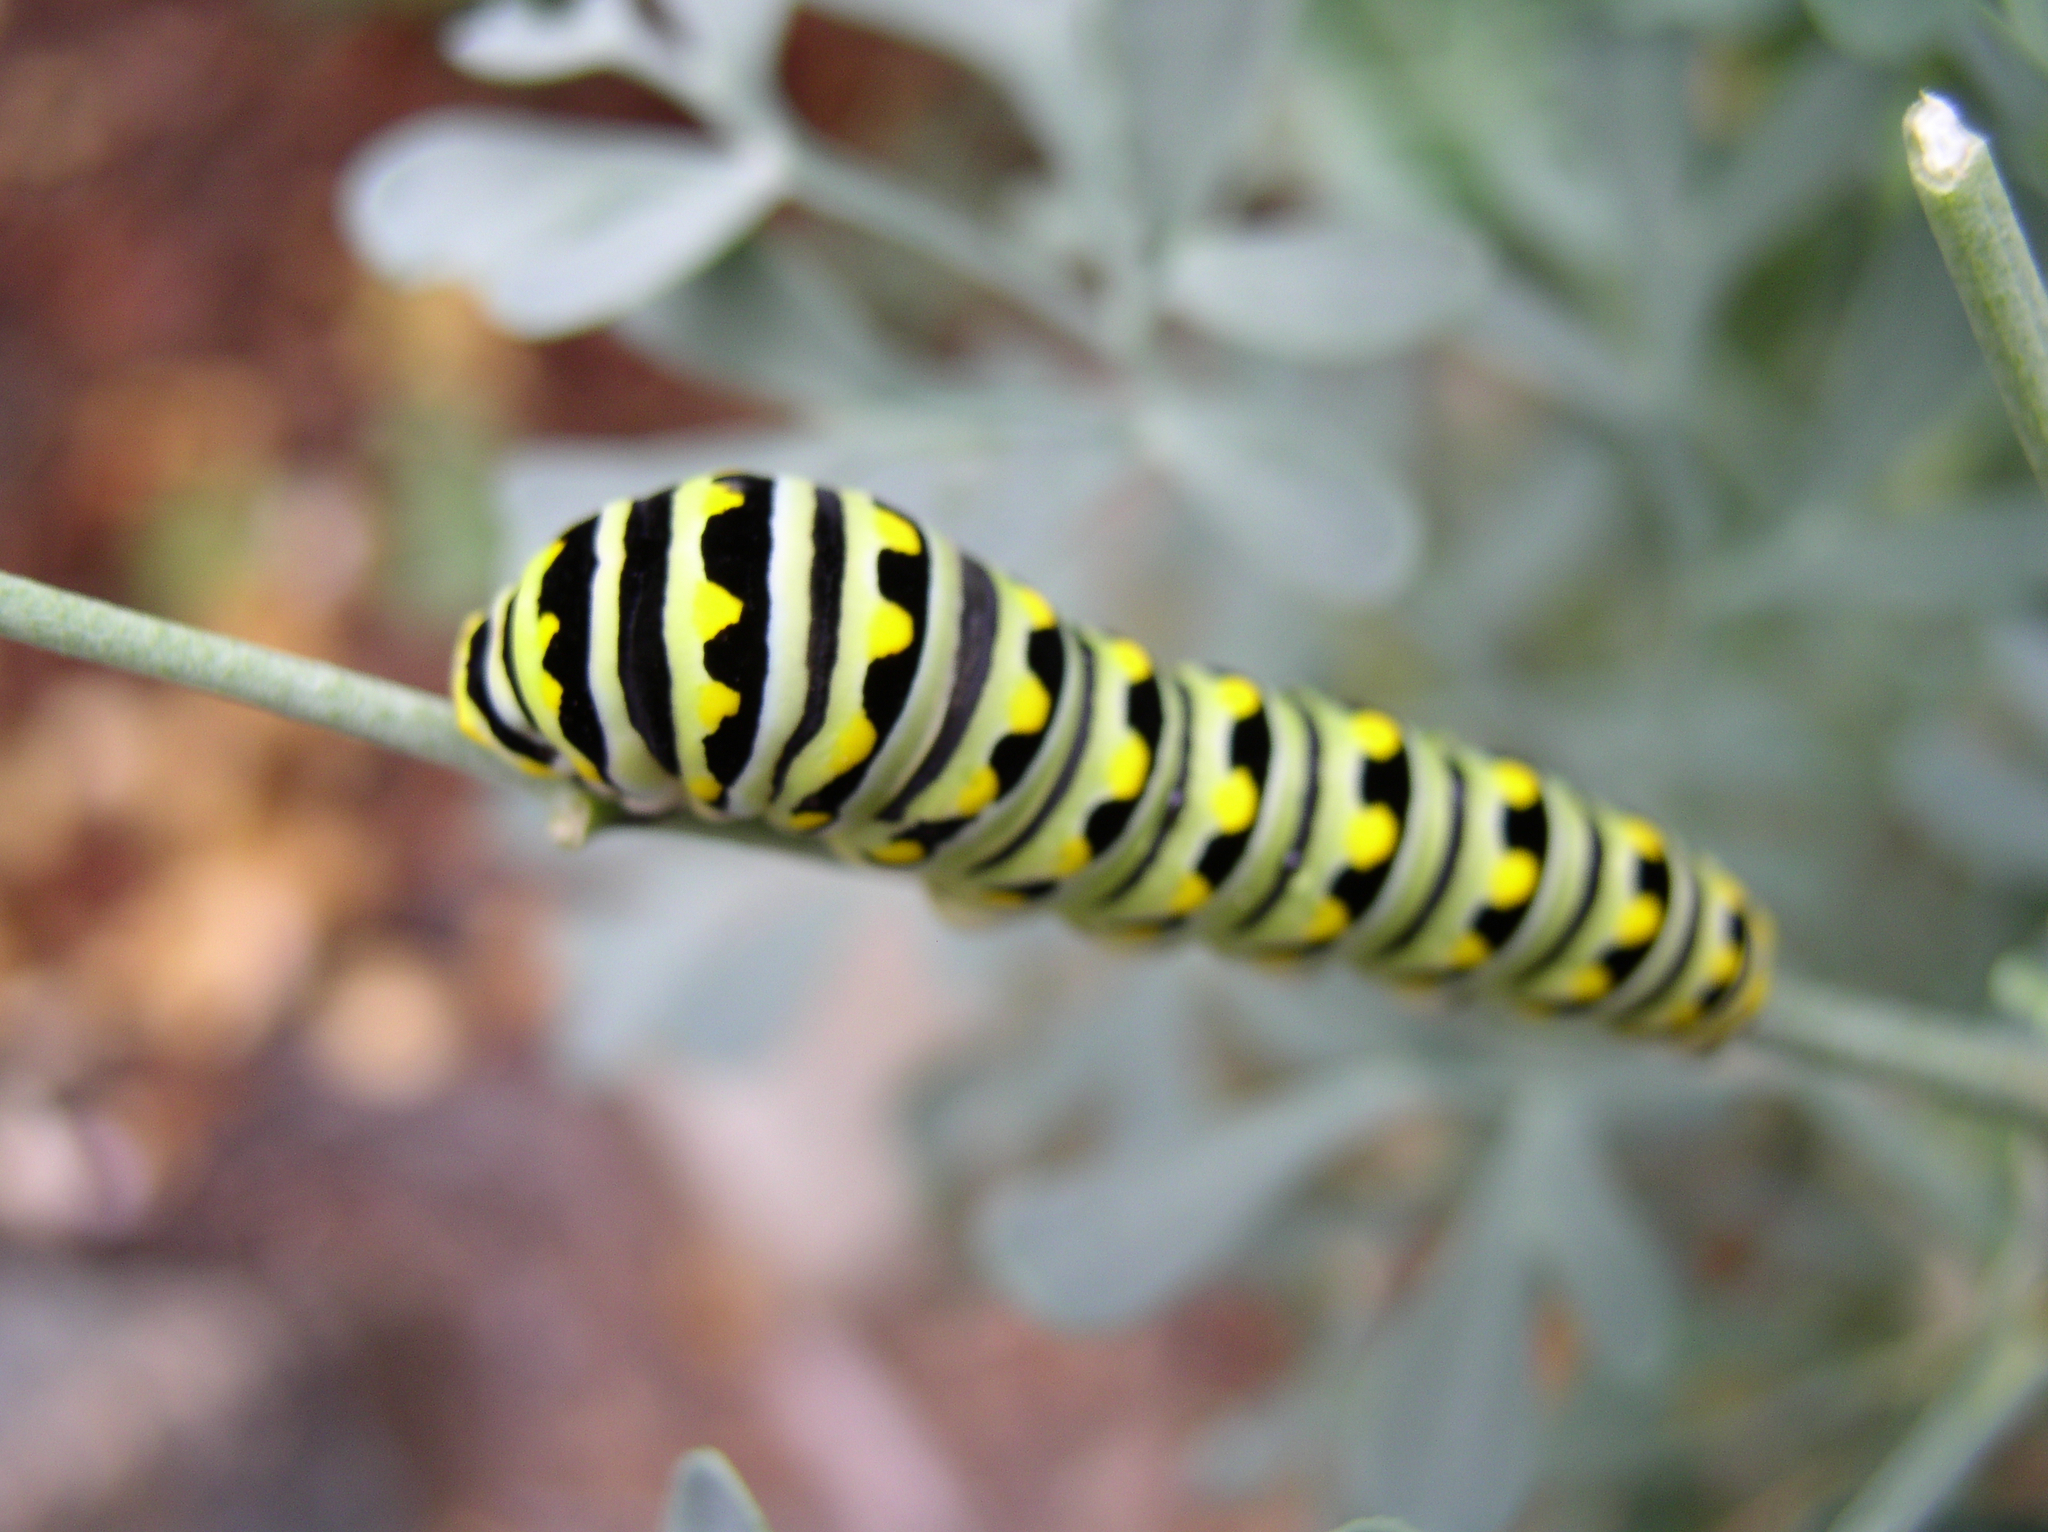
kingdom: Animalia
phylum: Arthropoda
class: Insecta
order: Lepidoptera
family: Papilionidae
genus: Papilio
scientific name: Papilio polyxenes
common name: Black swallowtail
